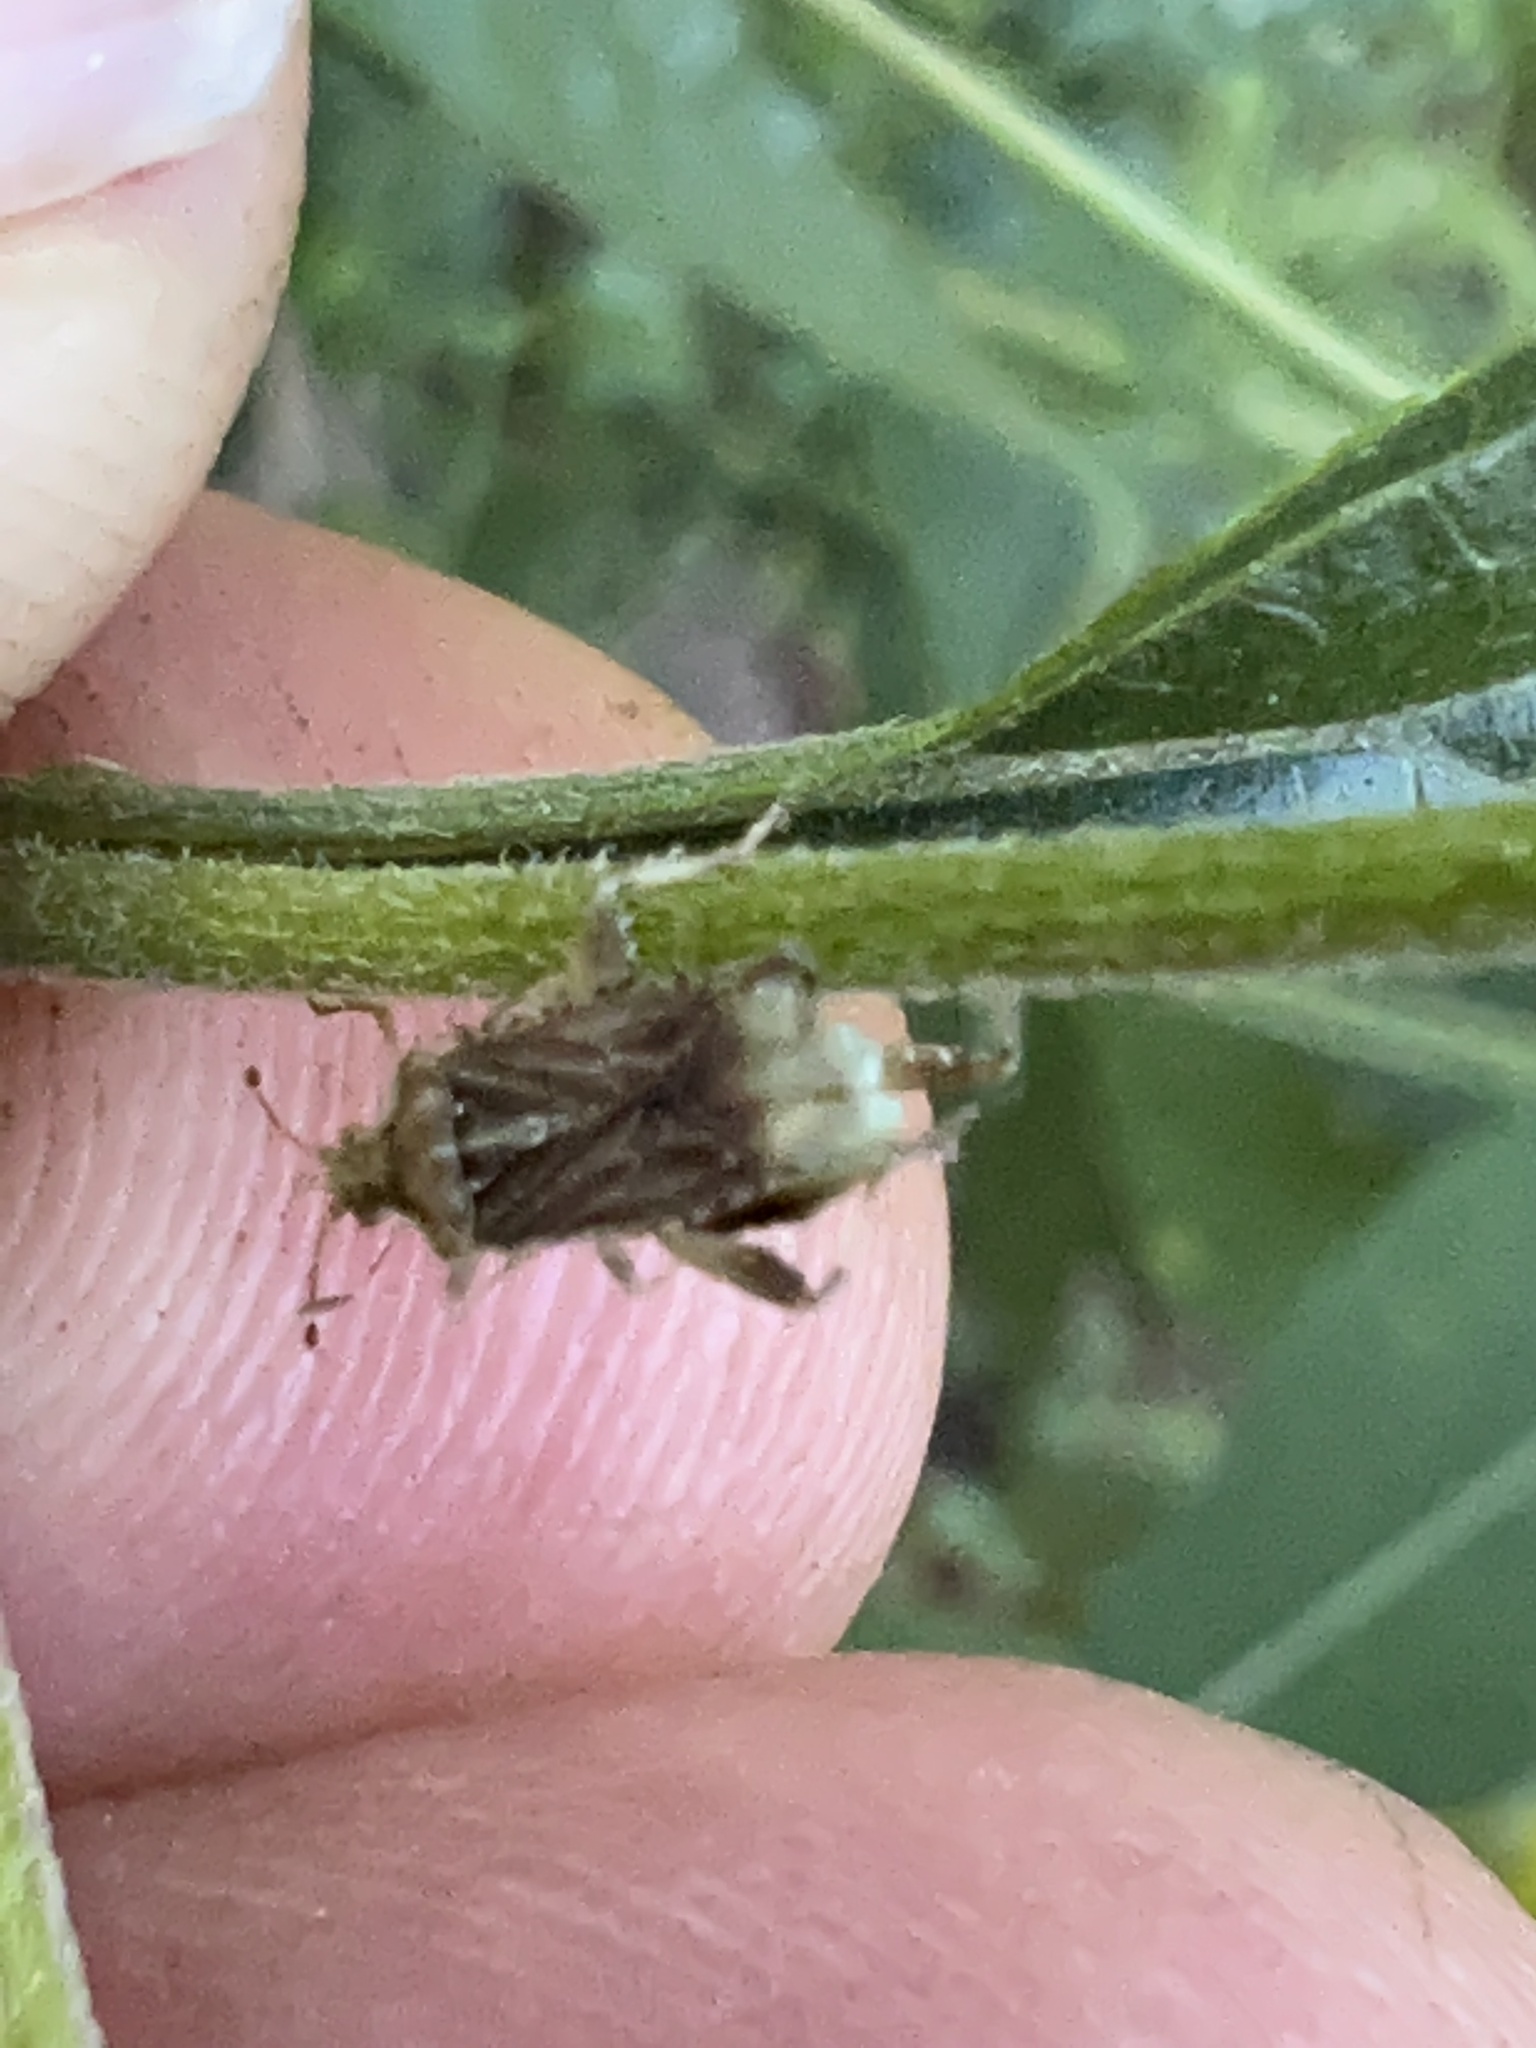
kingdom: Animalia
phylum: Arthropoda
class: Insecta
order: Hemiptera
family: Rhopalidae
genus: Harmostes
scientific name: Harmostes fraterculus
